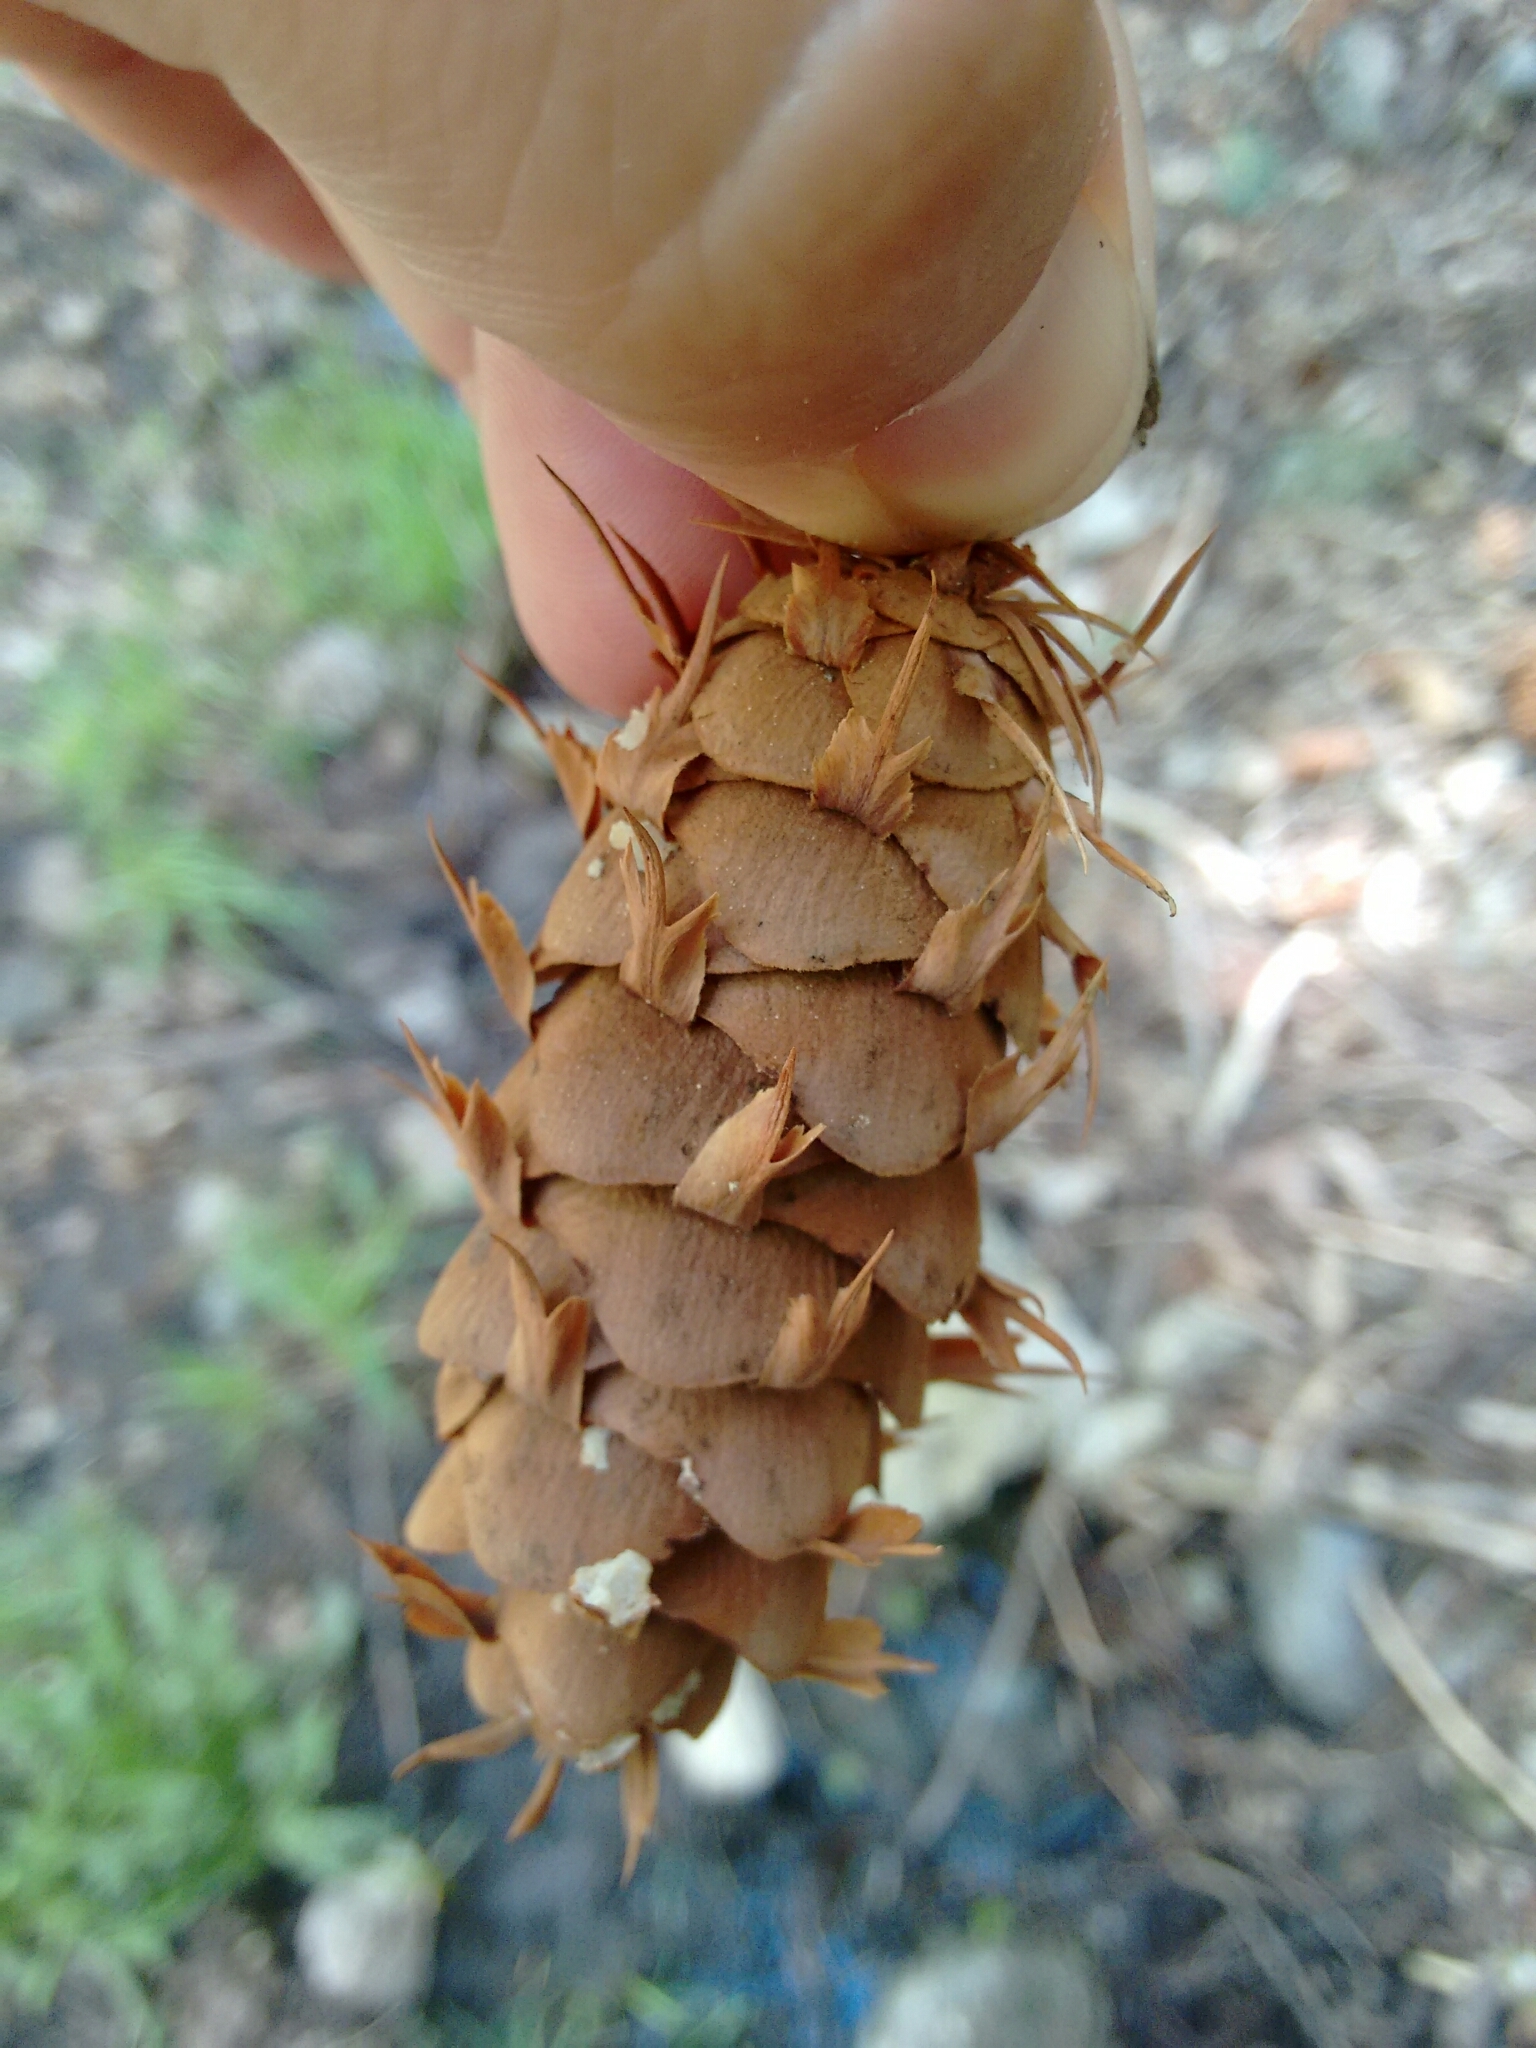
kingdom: Plantae
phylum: Tracheophyta
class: Pinopsida
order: Pinales
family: Pinaceae
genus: Pseudotsuga
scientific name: Pseudotsuga menziesii
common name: Douglas fir
